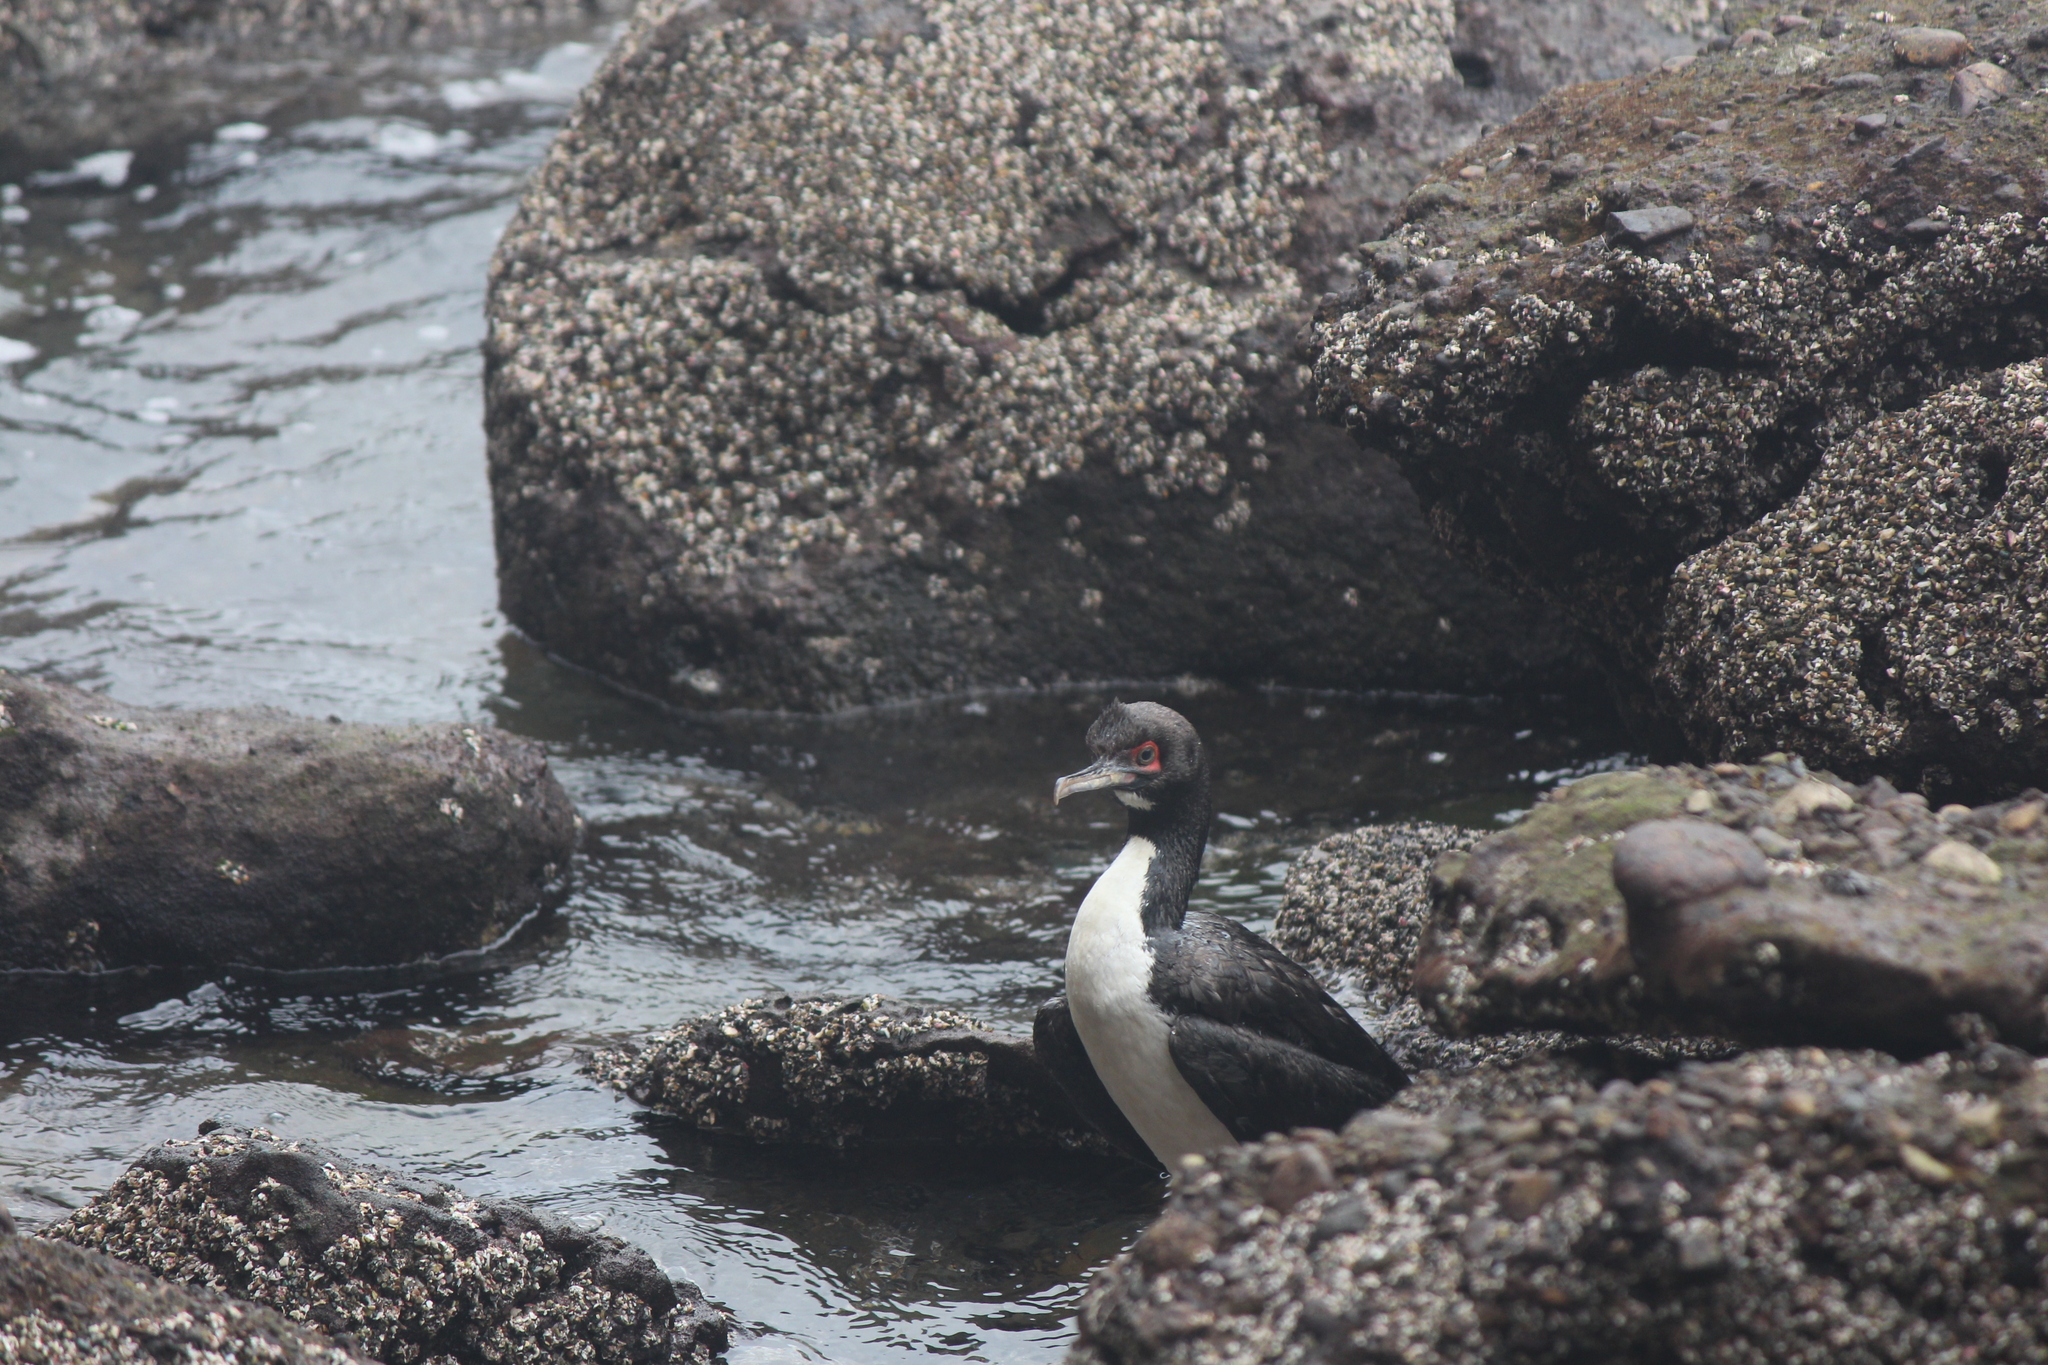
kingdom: Animalia
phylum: Chordata
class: Aves
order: Suliformes
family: Phalacrocoracidae
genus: Leucocarbo
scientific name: Leucocarbo bougainvillii
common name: Guanay cormorant
